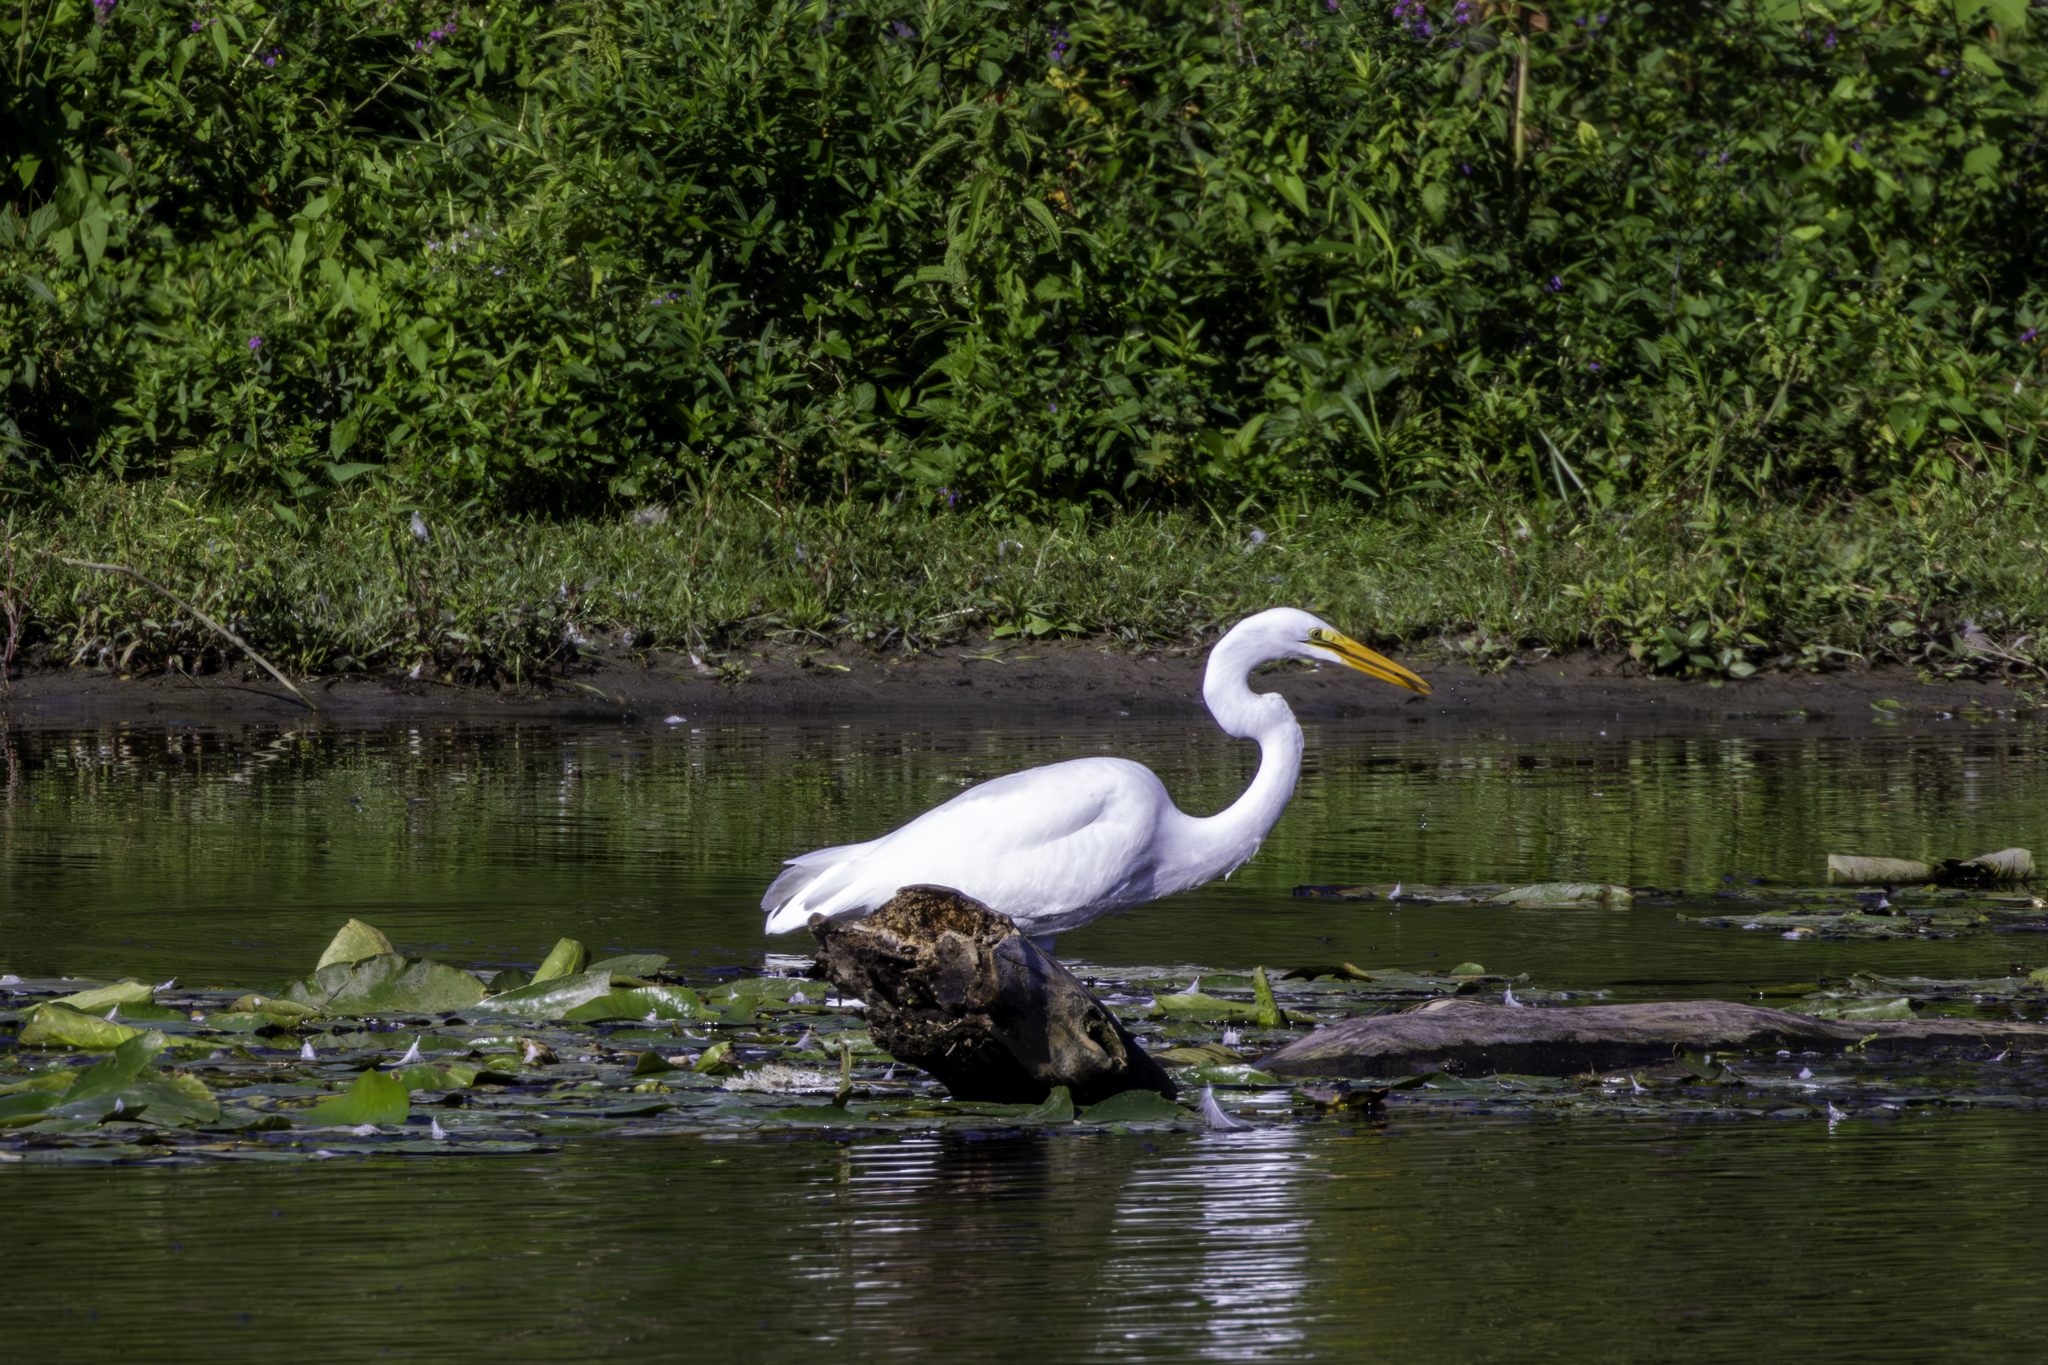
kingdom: Animalia
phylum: Chordata
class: Aves
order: Pelecaniformes
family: Ardeidae
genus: Ardea
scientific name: Ardea alba
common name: Great egret
